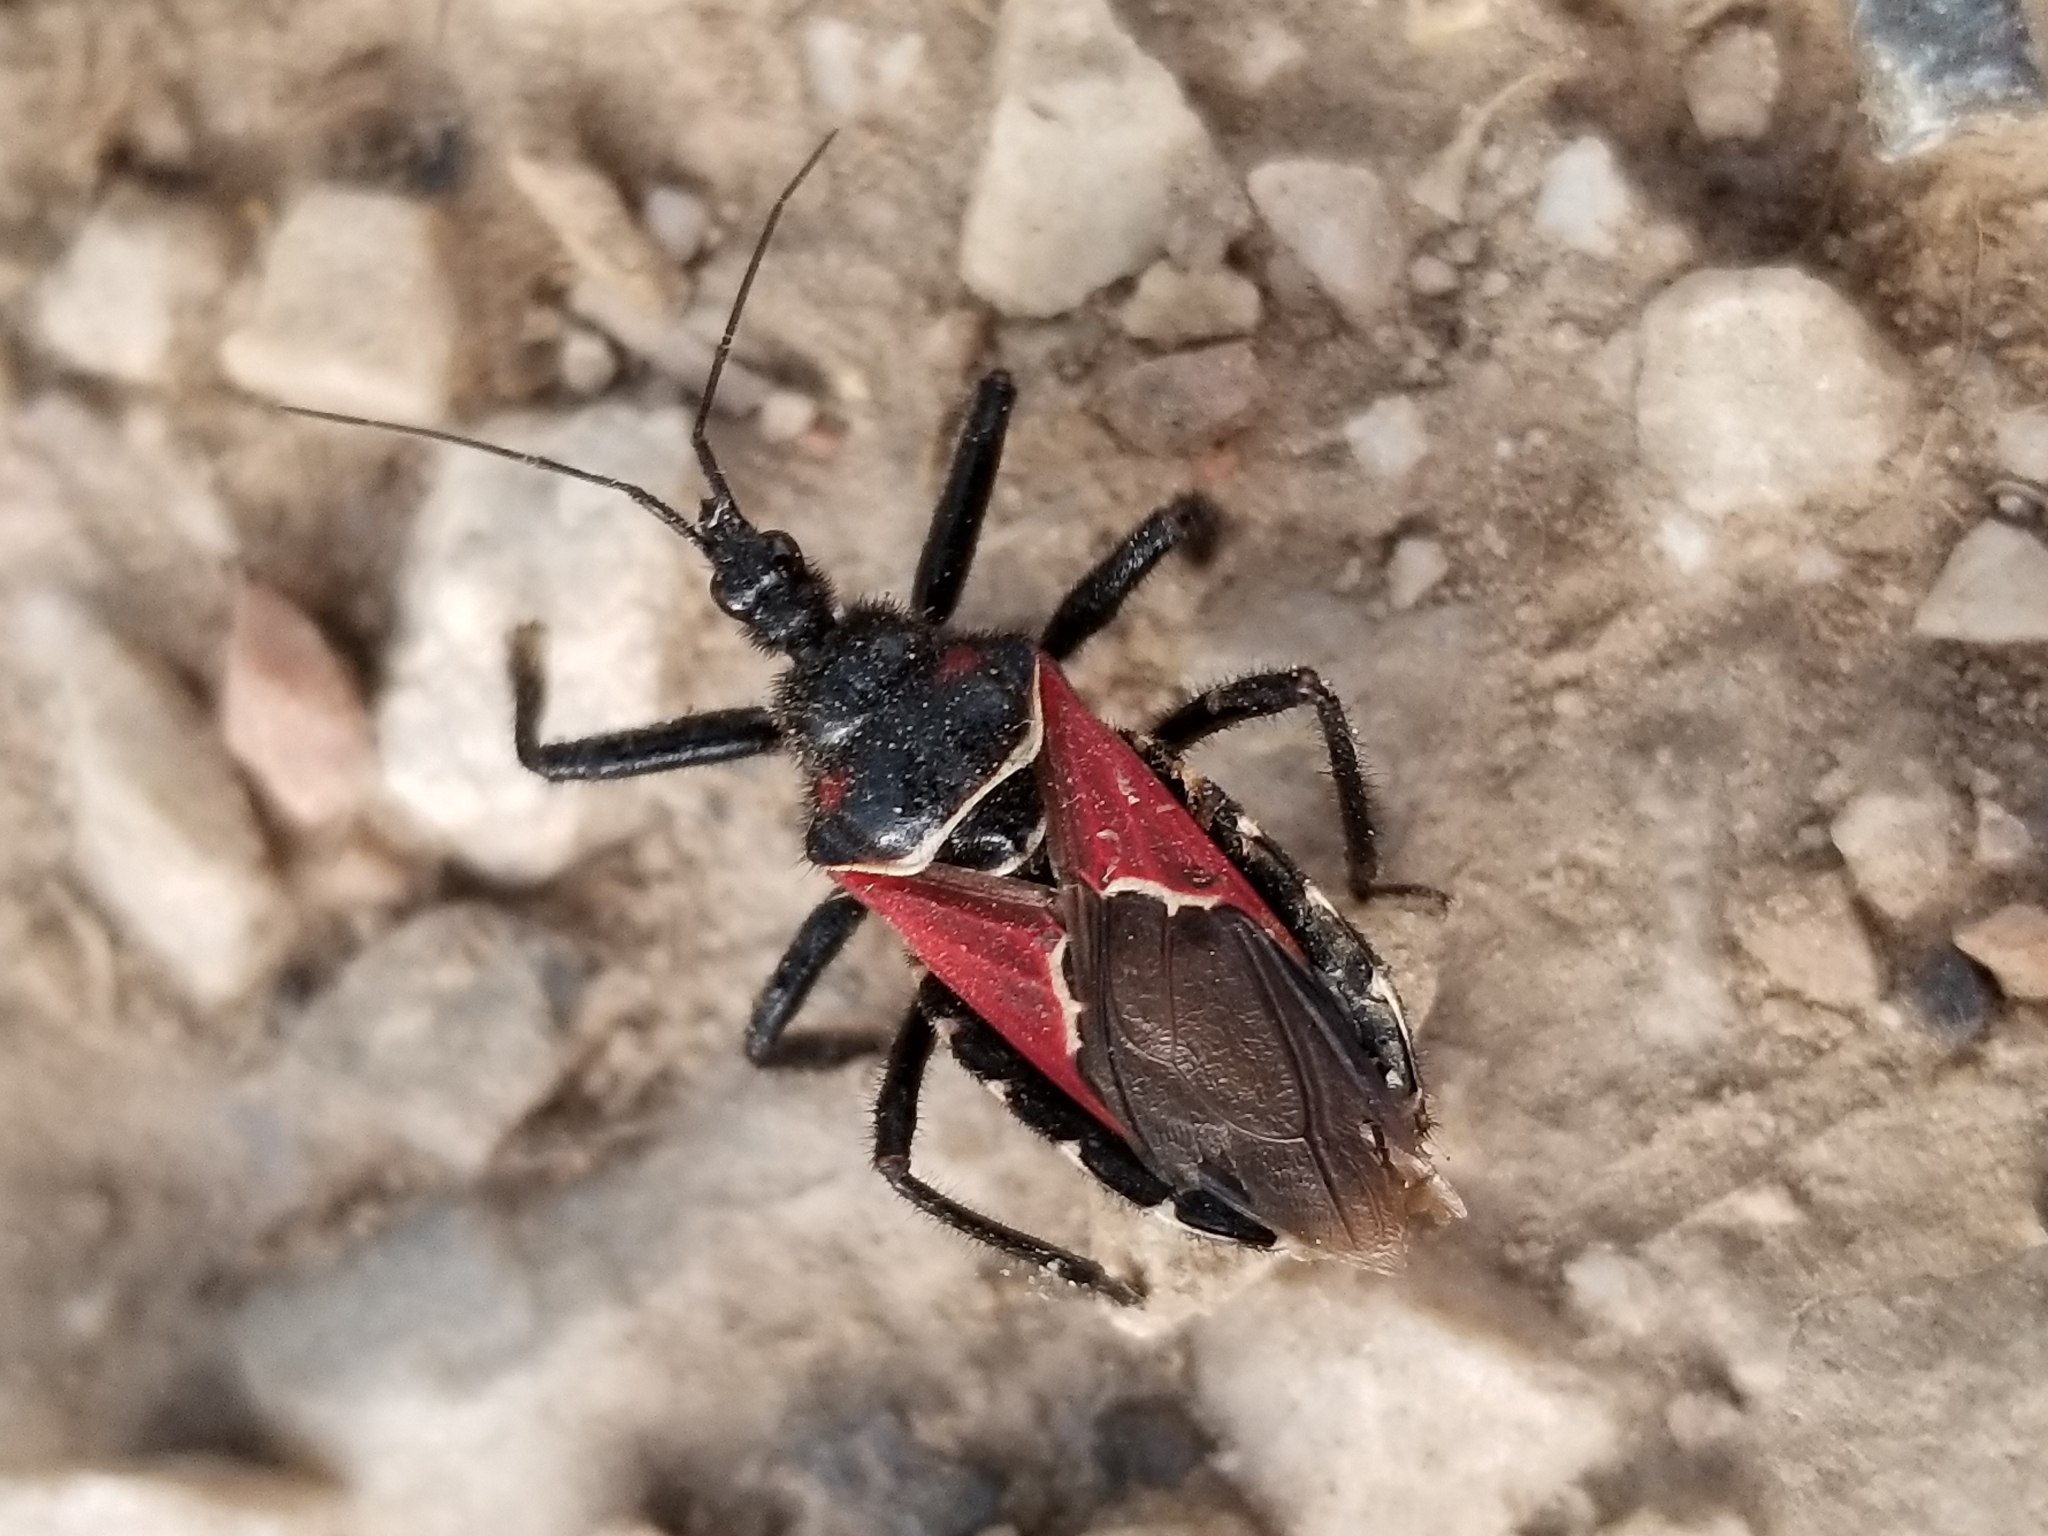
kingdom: Animalia
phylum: Arthropoda
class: Insecta
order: Hemiptera
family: Reduviidae
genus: Apiomerus
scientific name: Apiomerus montanus
